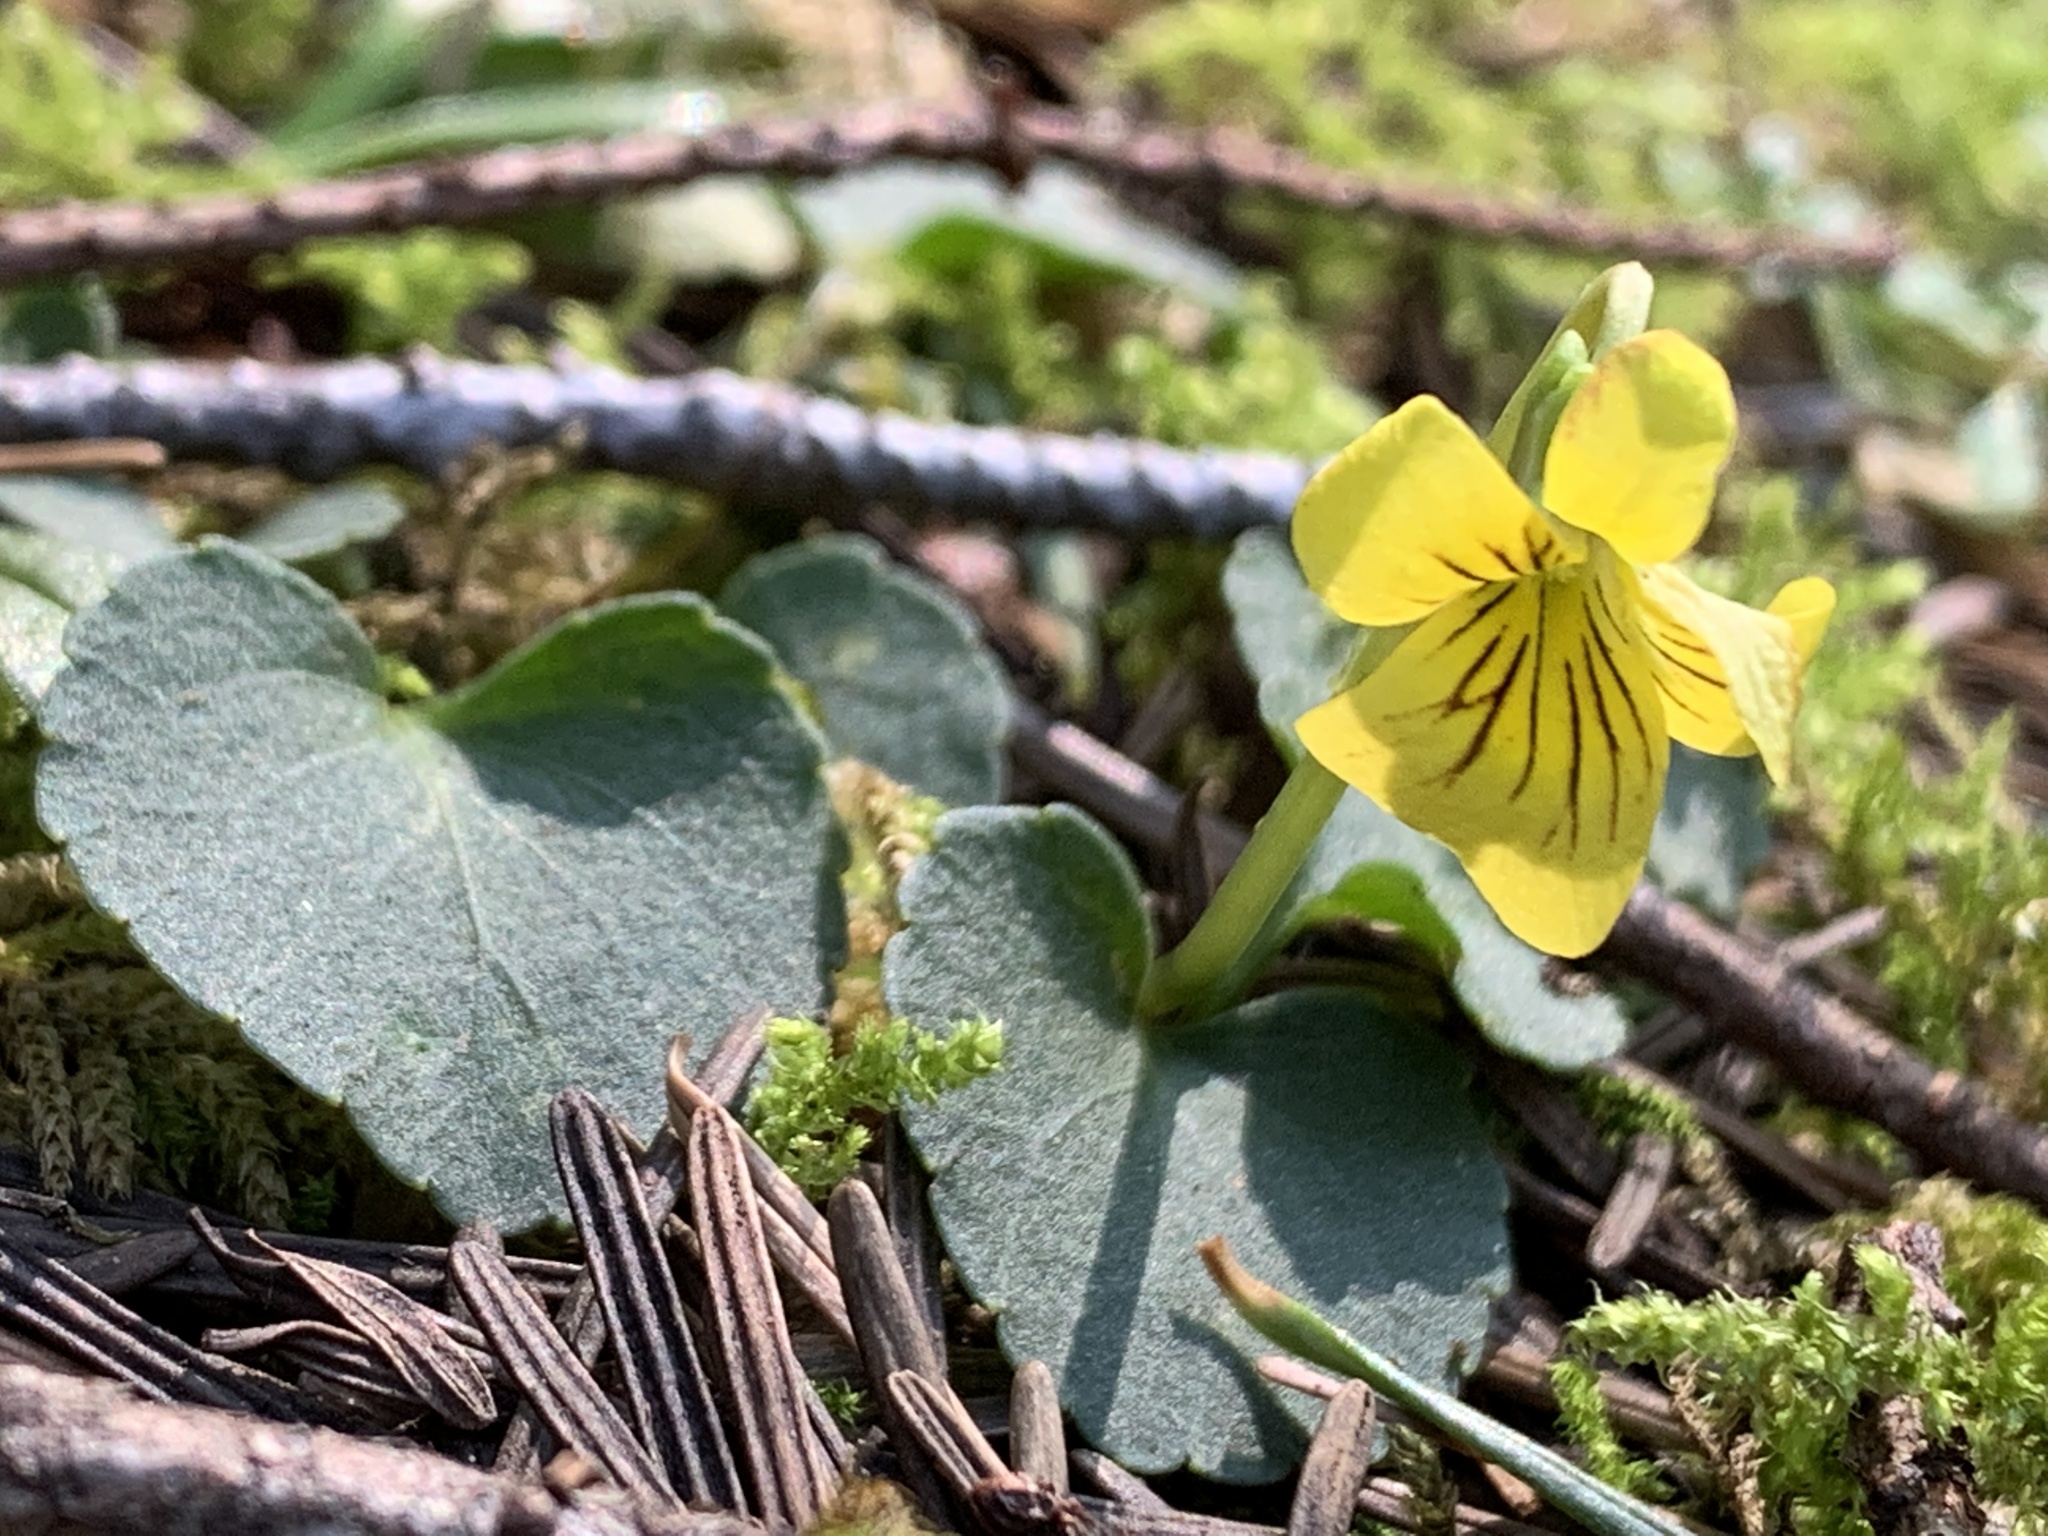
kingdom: Plantae
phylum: Tracheophyta
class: Magnoliopsida
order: Malpighiales
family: Violaceae
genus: Viola
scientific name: Viola sempervirens
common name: Evergreen violet
